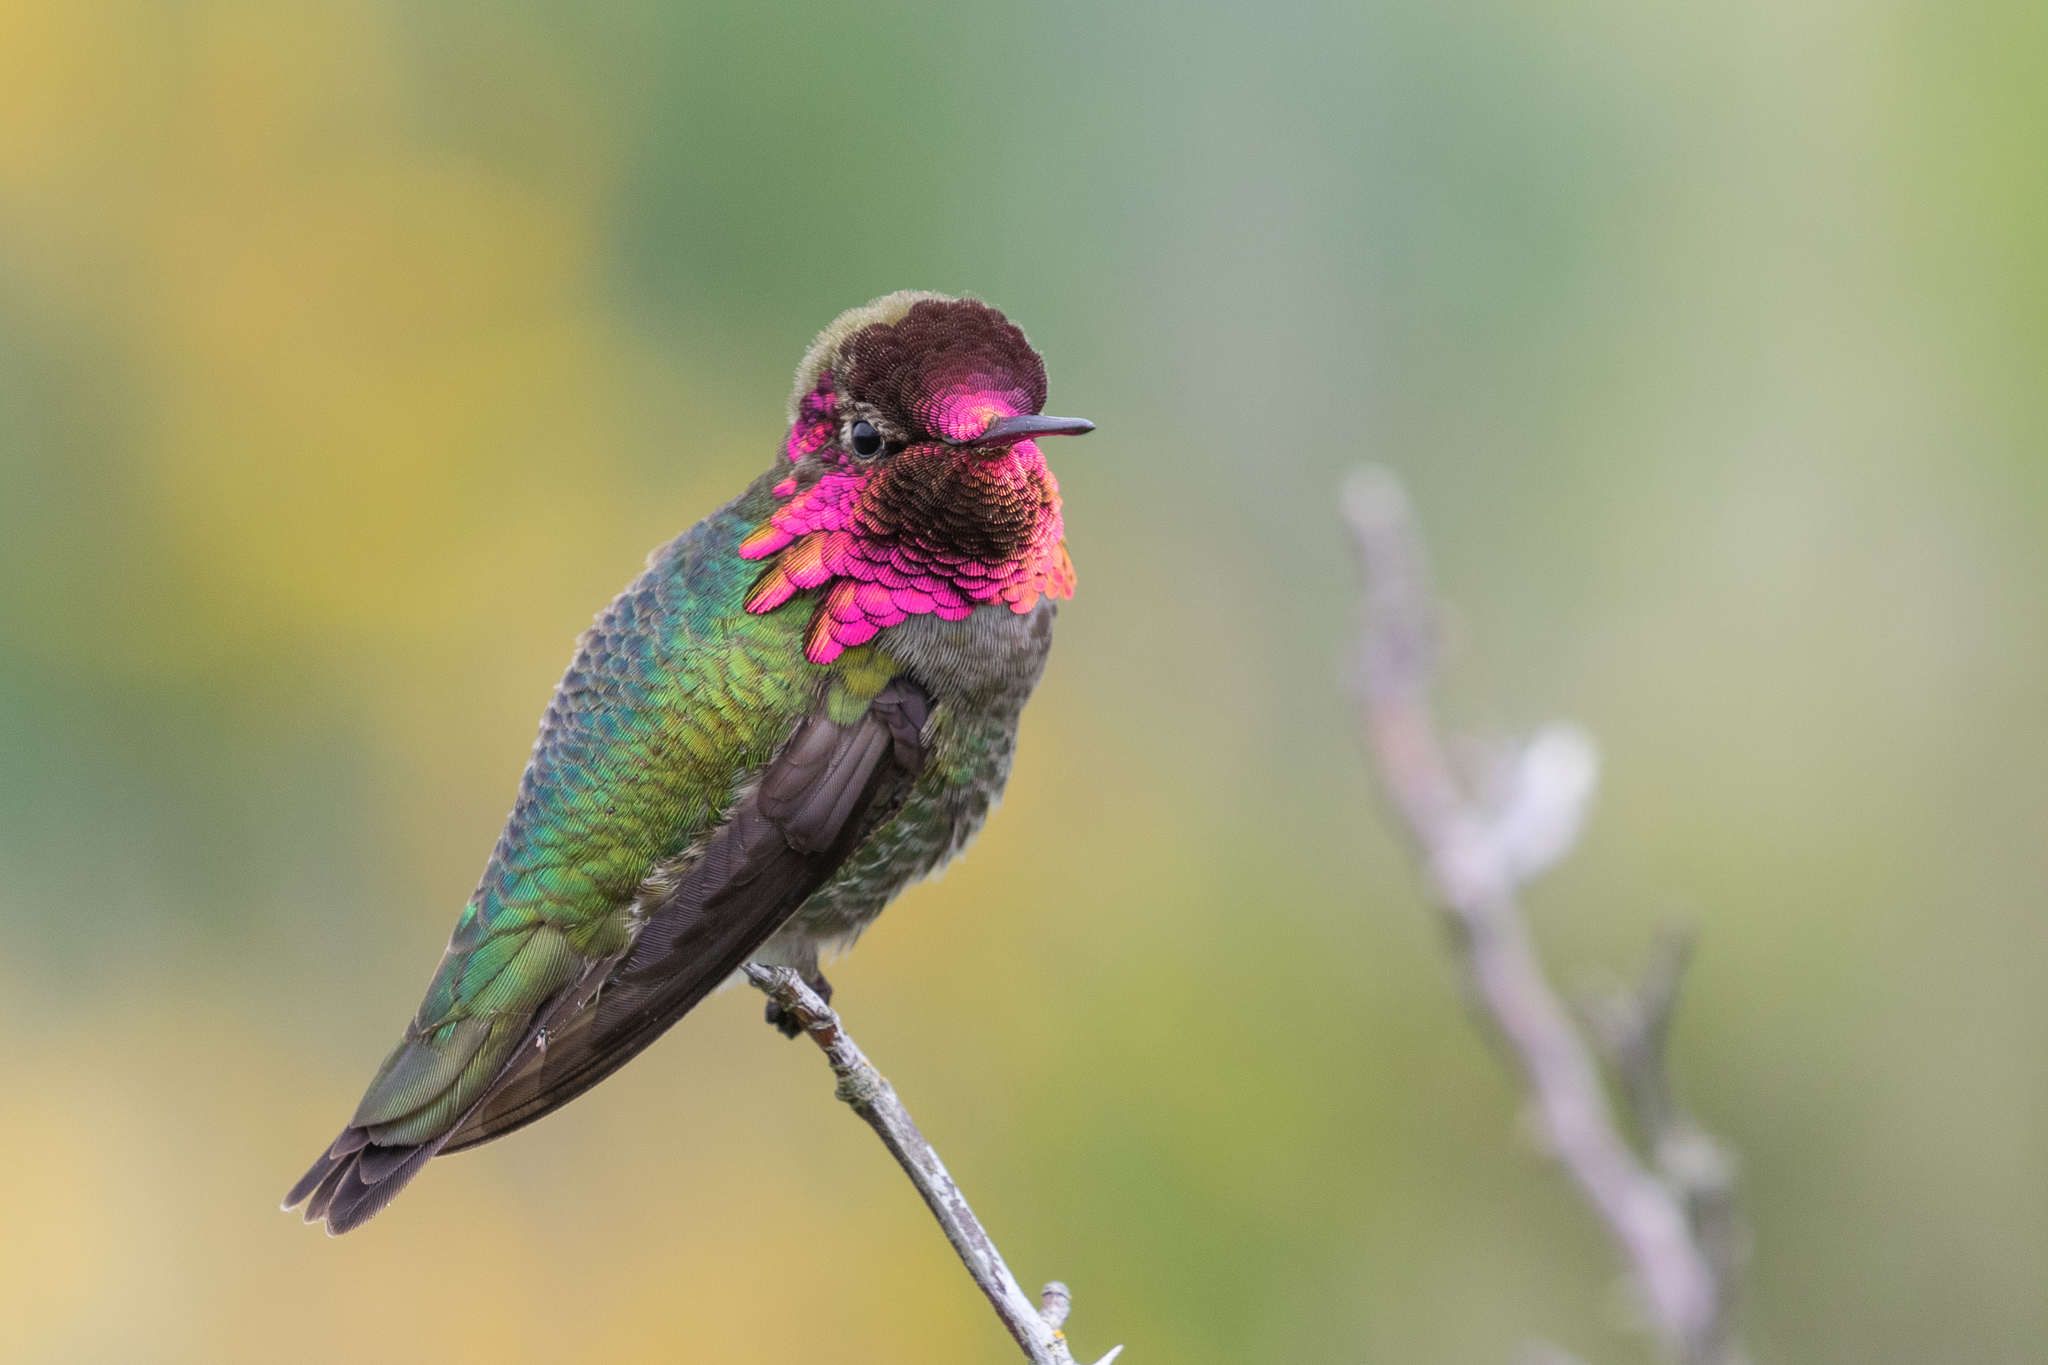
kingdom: Animalia
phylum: Chordata
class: Aves
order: Apodiformes
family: Trochilidae
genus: Calypte
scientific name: Calypte anna
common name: Anna's hummingbird
